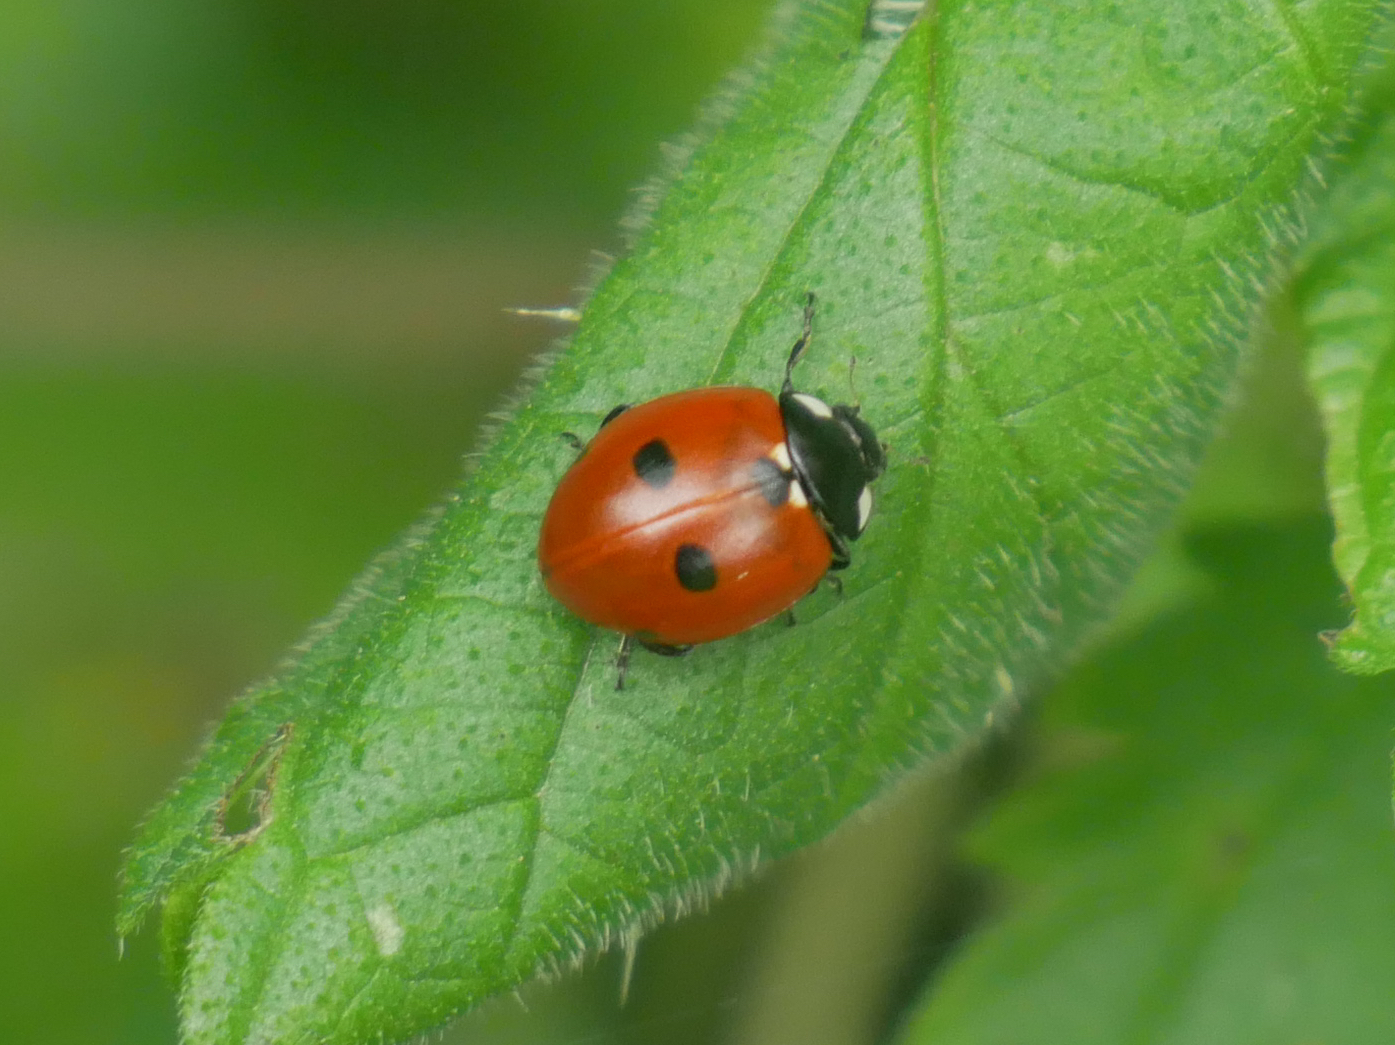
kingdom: Animalia
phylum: Arthropoda
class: Insecta
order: Coleoptera
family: Coccinellidae
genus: Coccinella
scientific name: Coccinella quinquepunctata
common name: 5-spot ladybird
